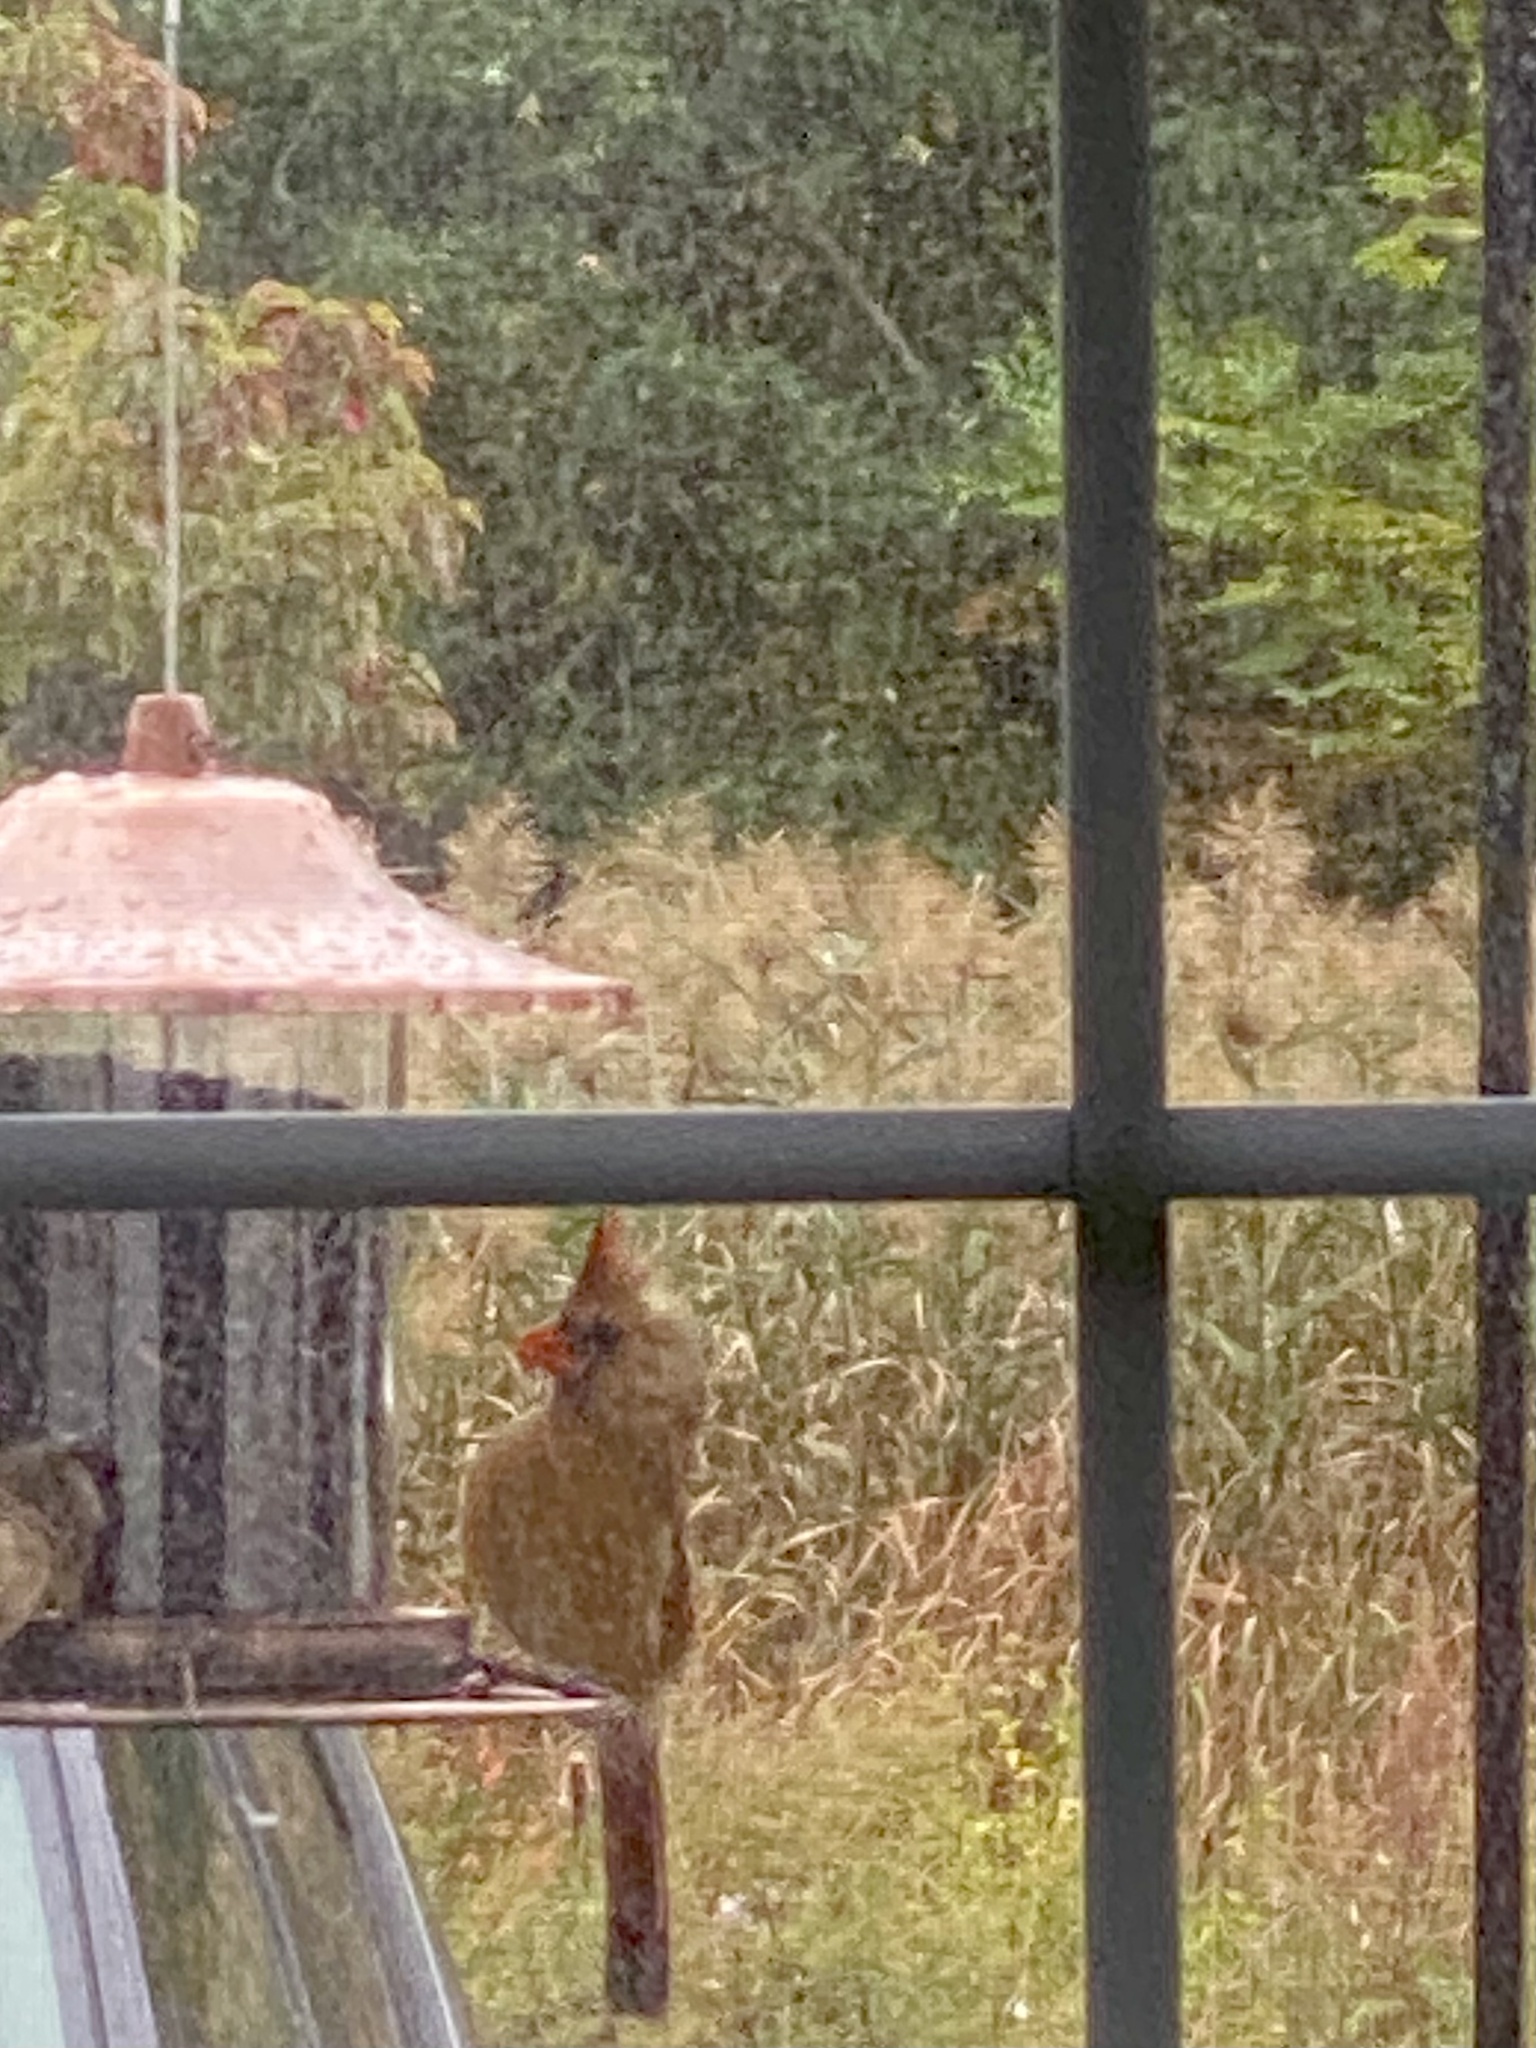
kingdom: Animalia
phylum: Chordata
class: Aves
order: Passeriformes
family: Cardinalidae
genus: Cardinalis
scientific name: Cardinalis cardinalis
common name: Northern cardinal
